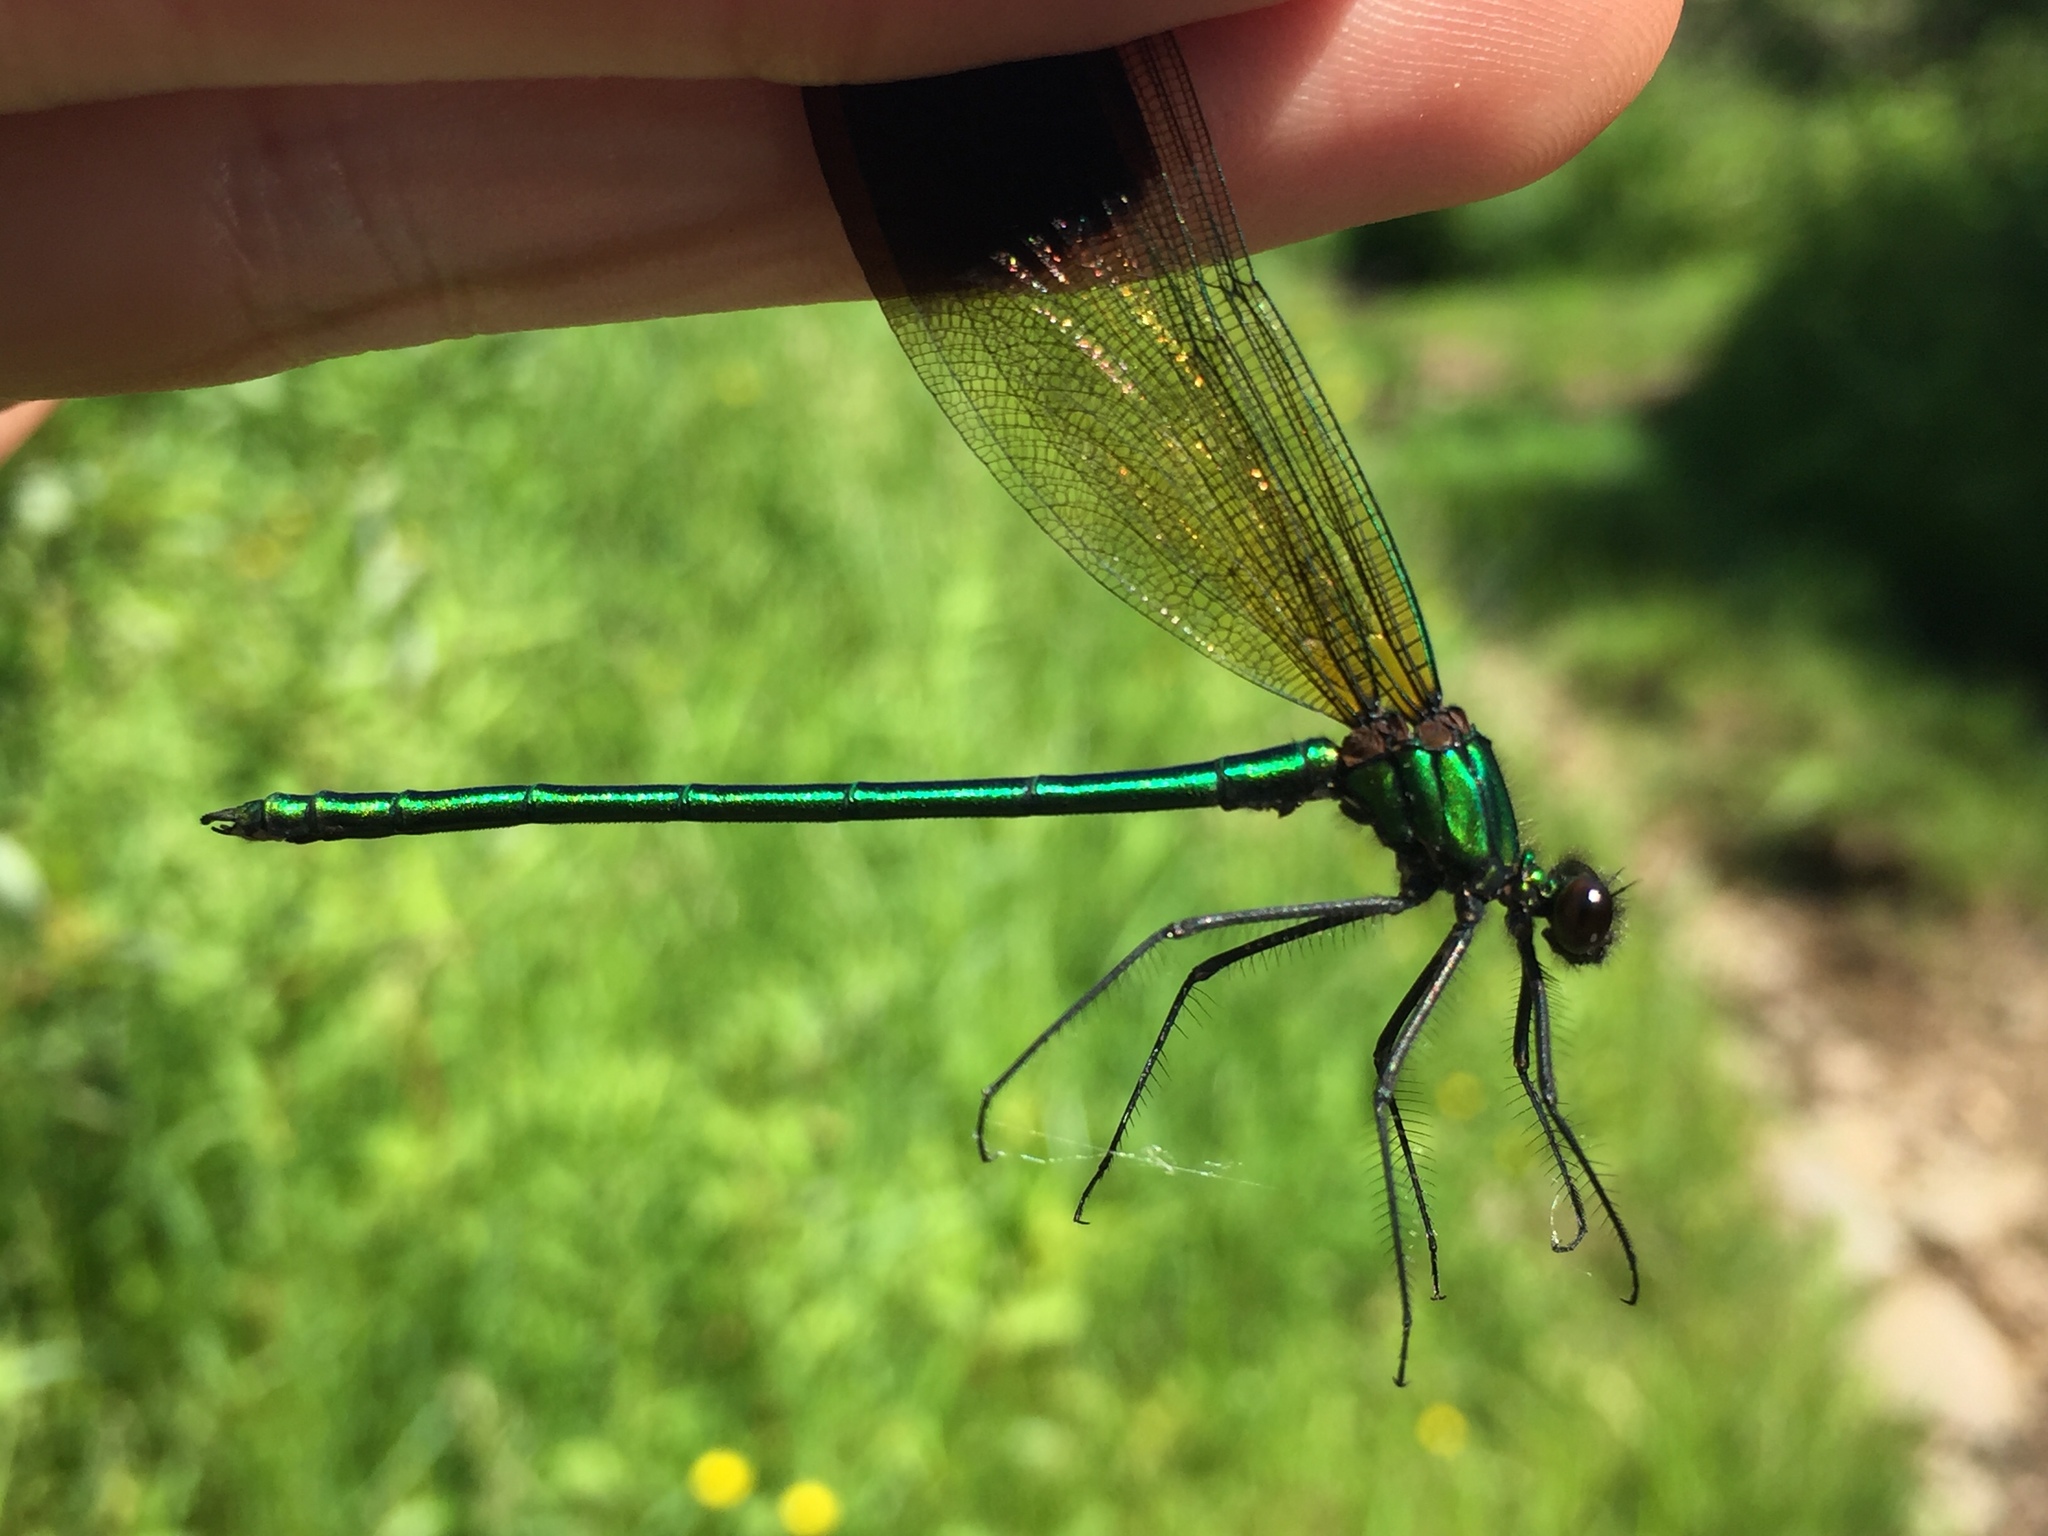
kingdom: Animalia
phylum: Arthropoda
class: Insecta
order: Odonata
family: Calopterygidae
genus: Calopteryx
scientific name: Calopteryx aequabilis
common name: River jewelwing
